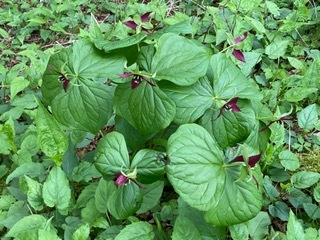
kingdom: Plantae
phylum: Tracheophyta
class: Liliopsida
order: Liliales
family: Melanthiaceae
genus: Trillium
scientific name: Trillium erectum
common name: Purple trillium
